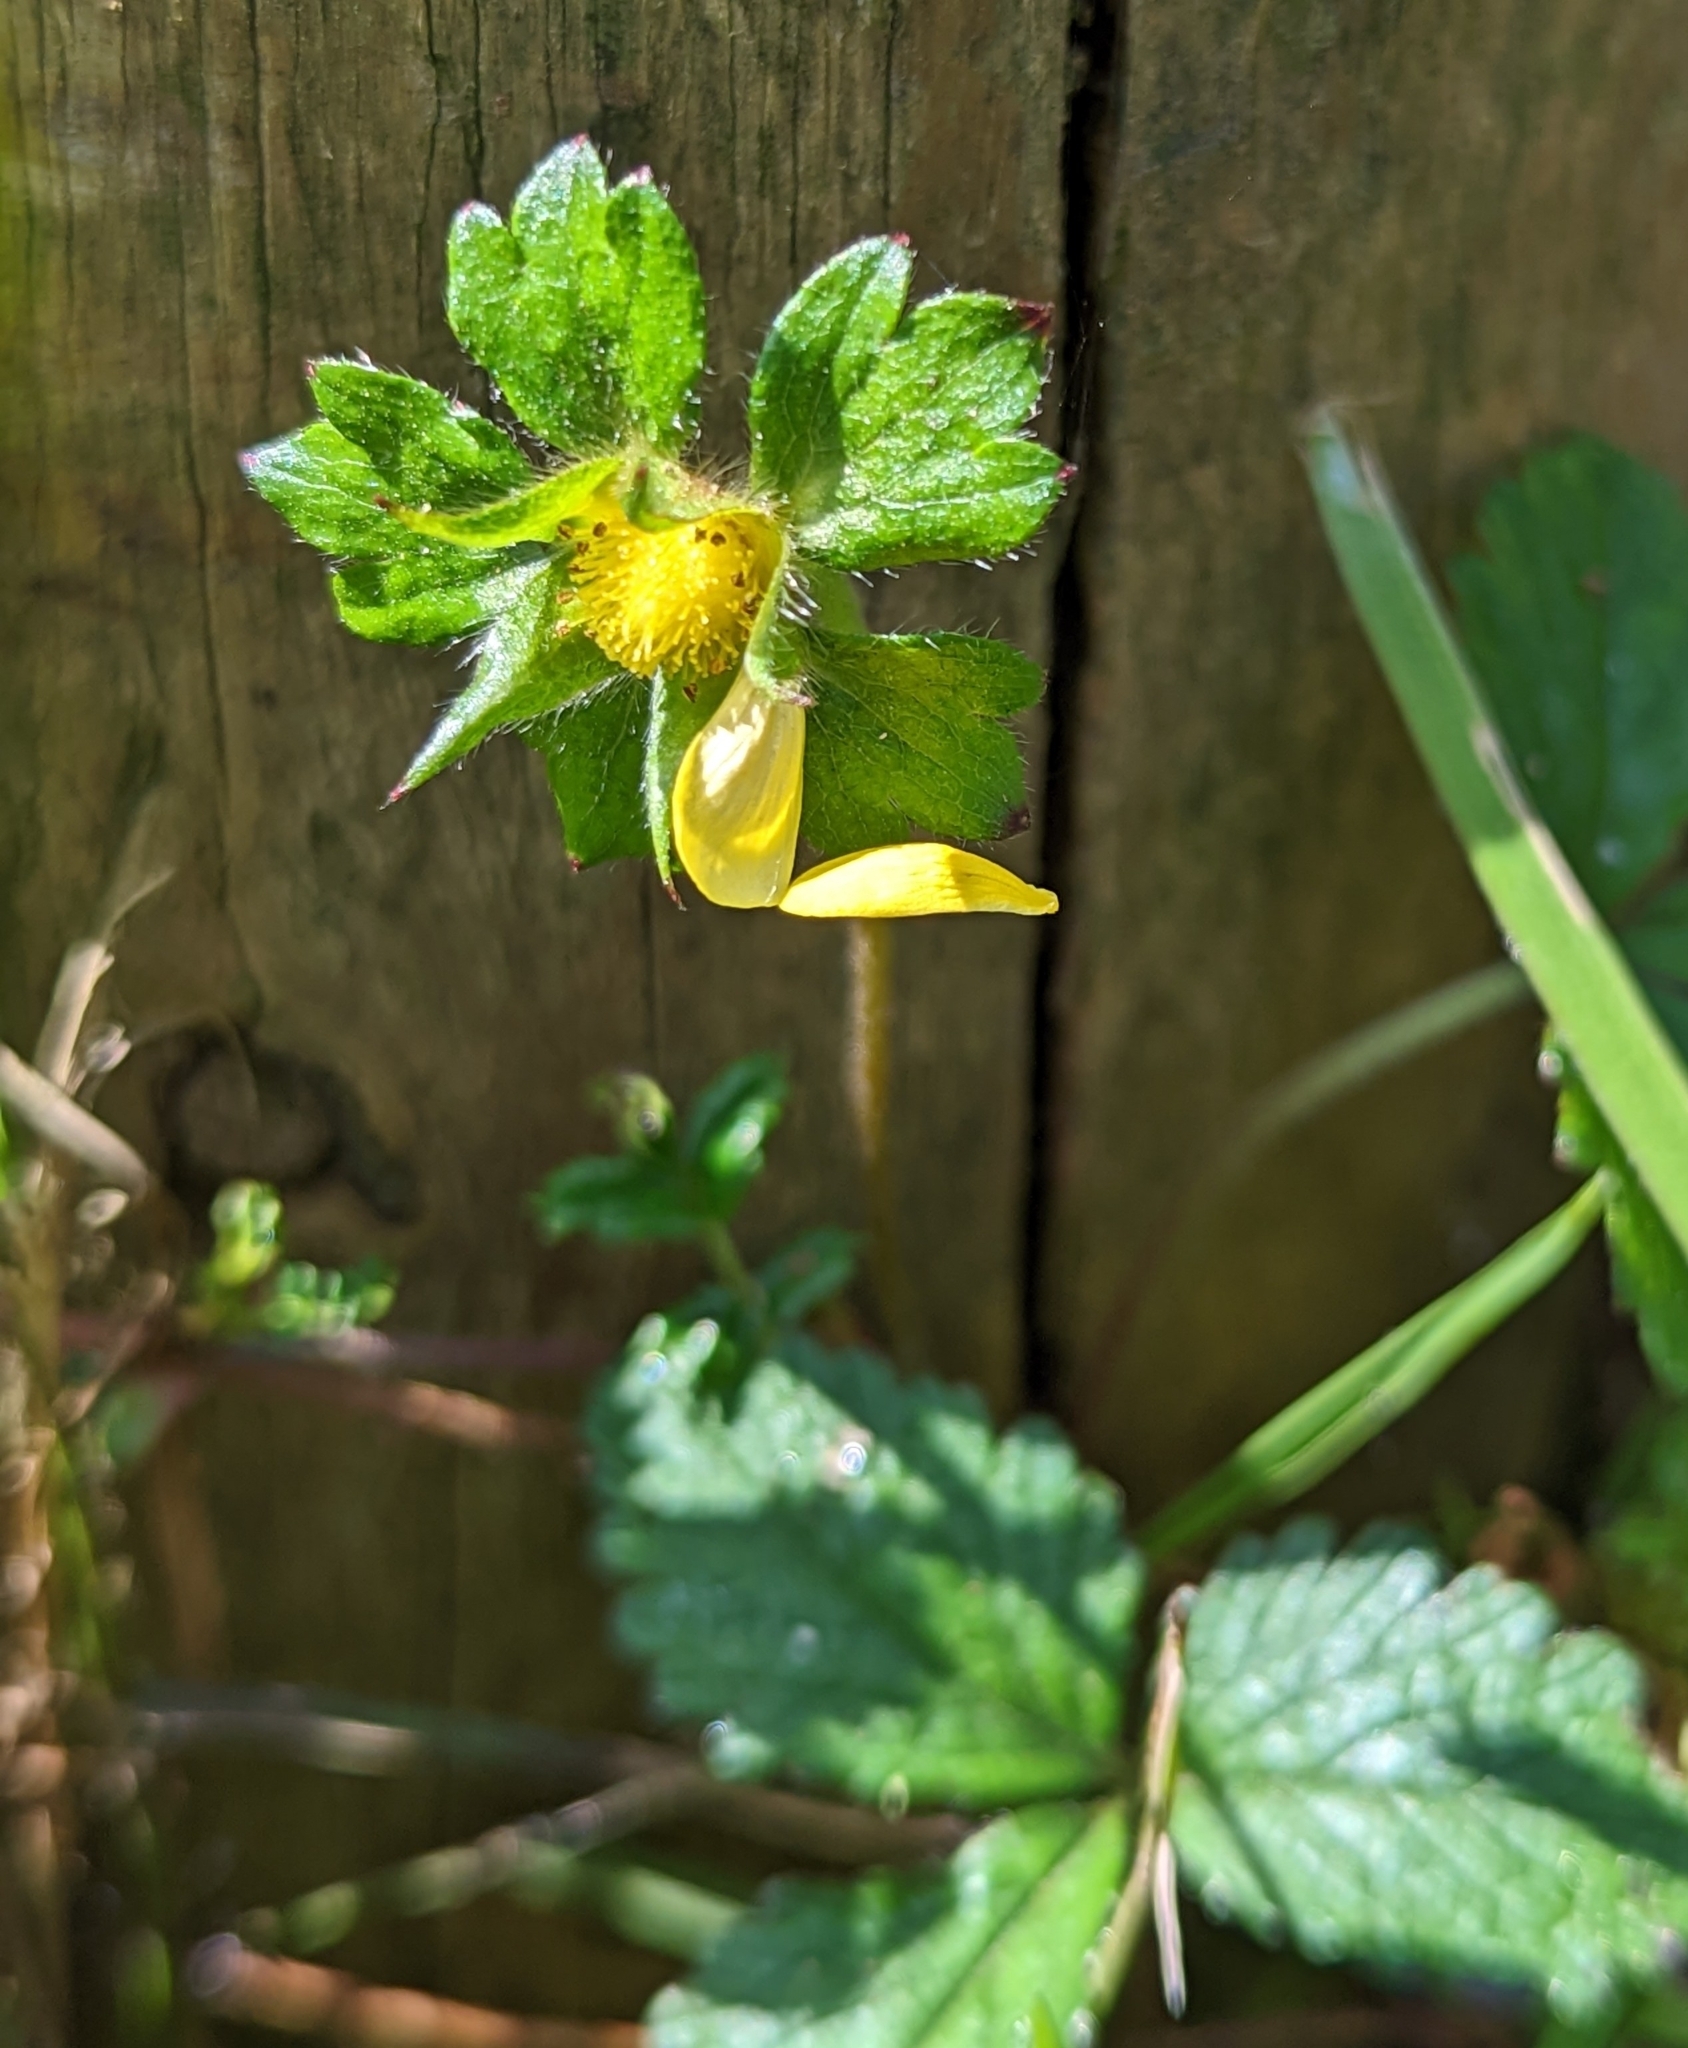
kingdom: Plantae
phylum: Tracheophyta
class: Magnoliopsida
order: Rosales
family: Rosaceae
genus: Potentilla
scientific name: Potentilla indica
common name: Yellow-flowered strawberry
